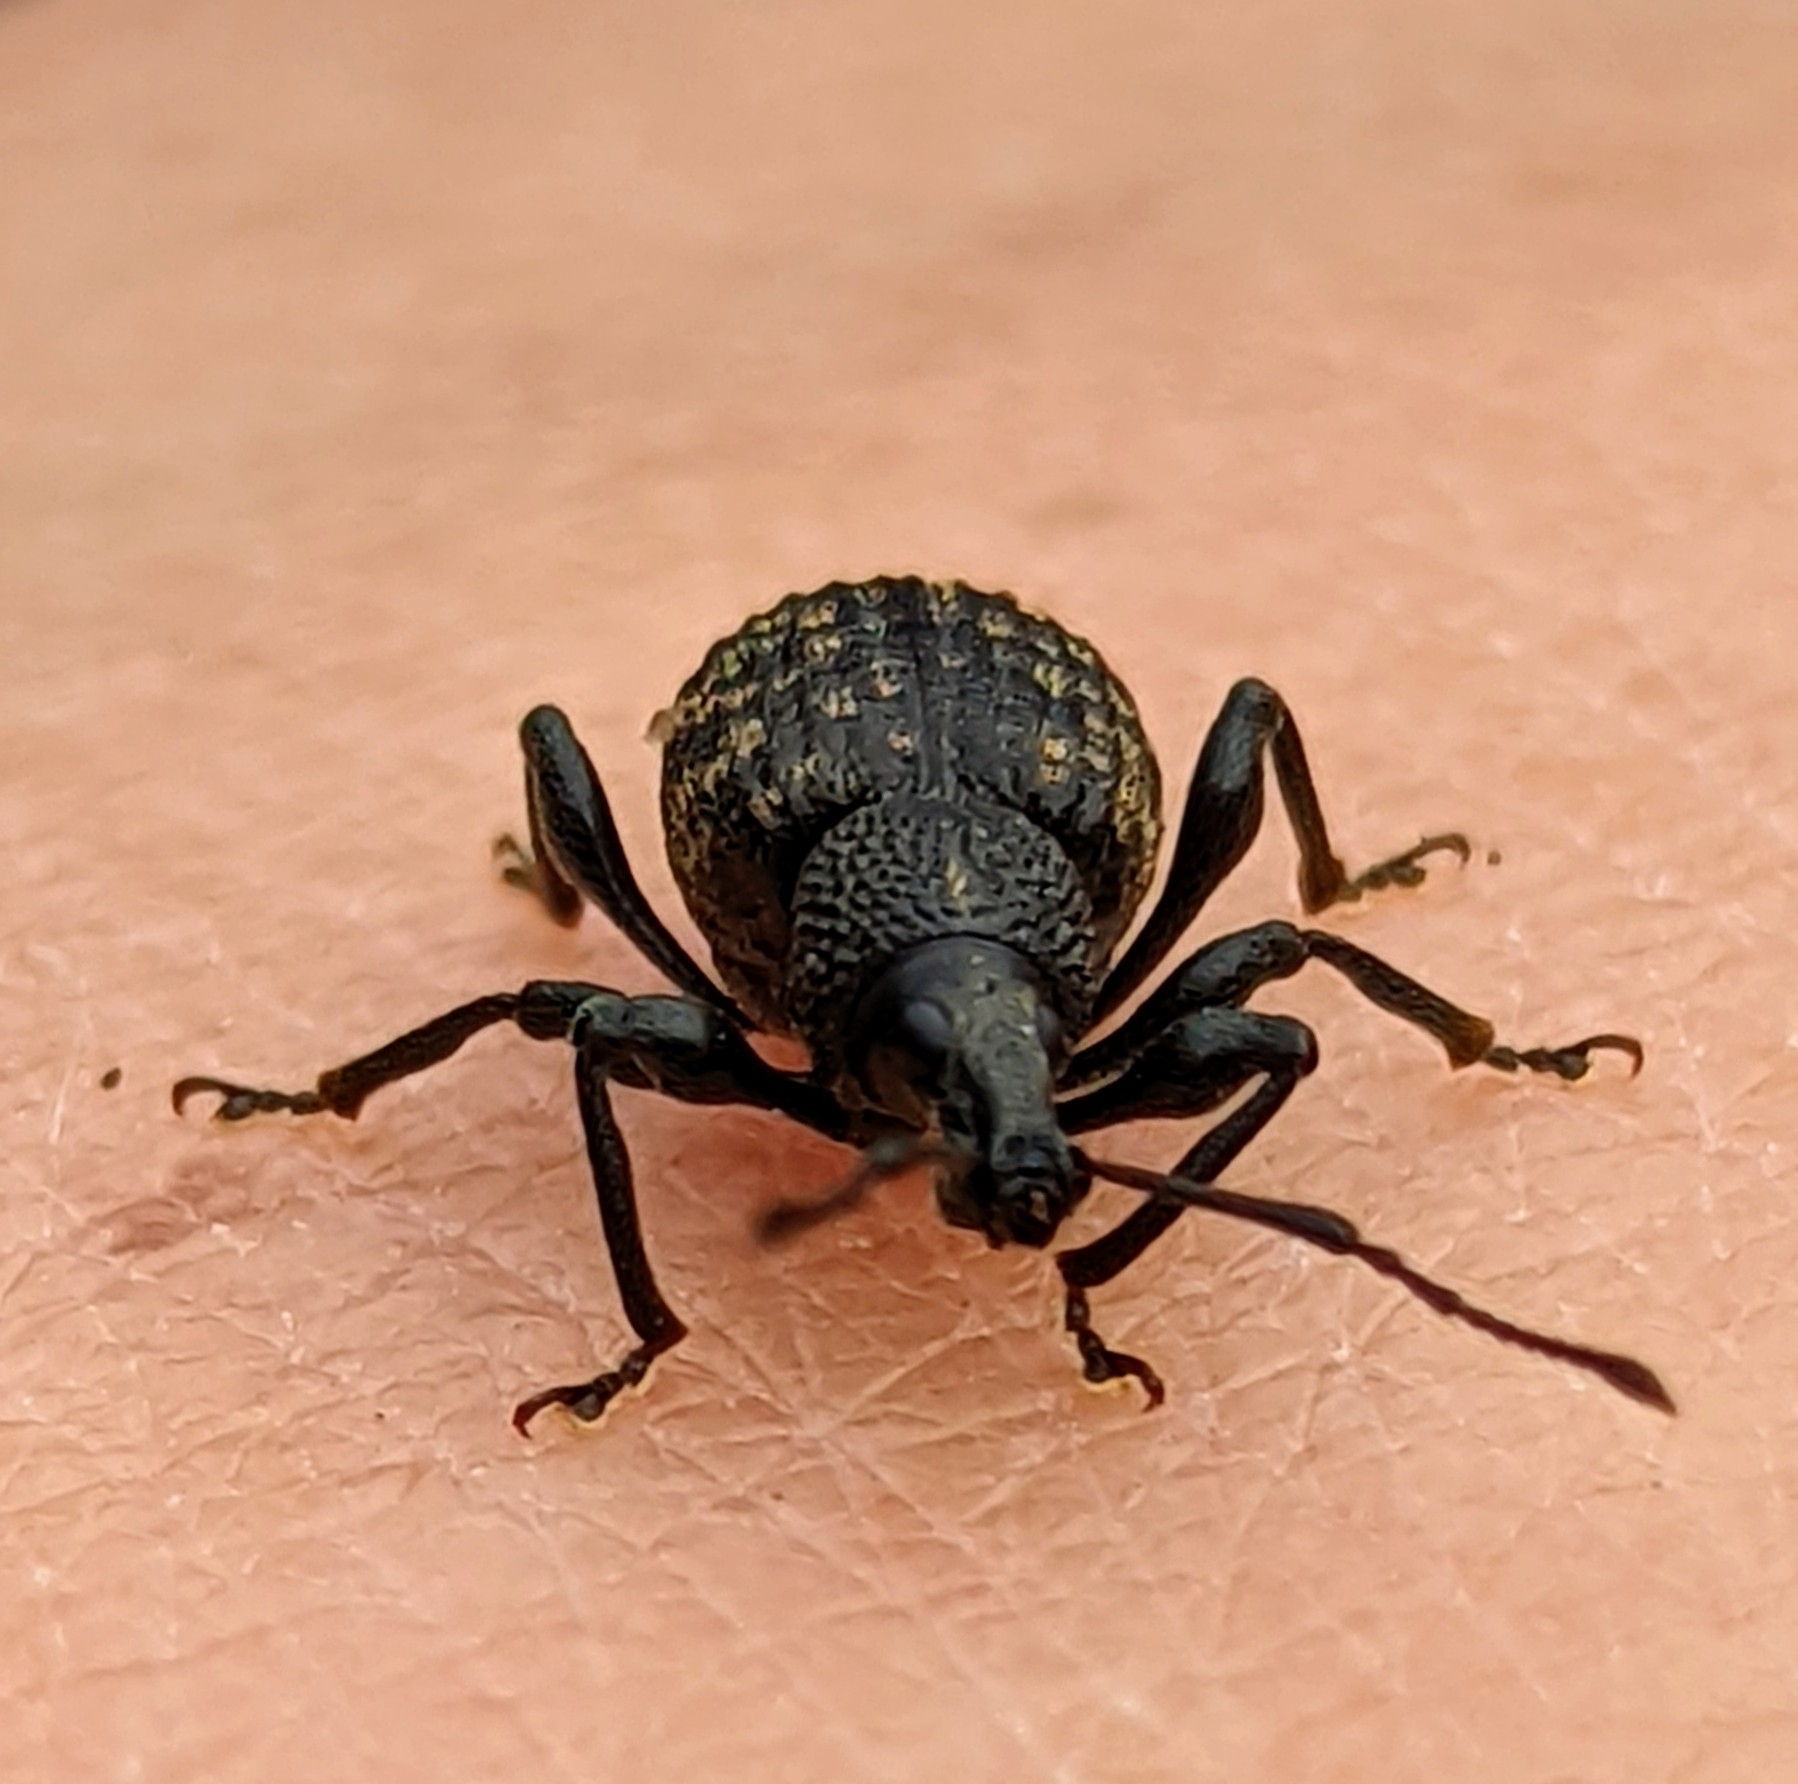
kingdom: Animalia
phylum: Arthropoda
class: Insecta
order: Coleoptera
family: Curculionidae
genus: Otiorhynchus
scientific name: Otiorhynchus sulcatus
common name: Black vine weevil
